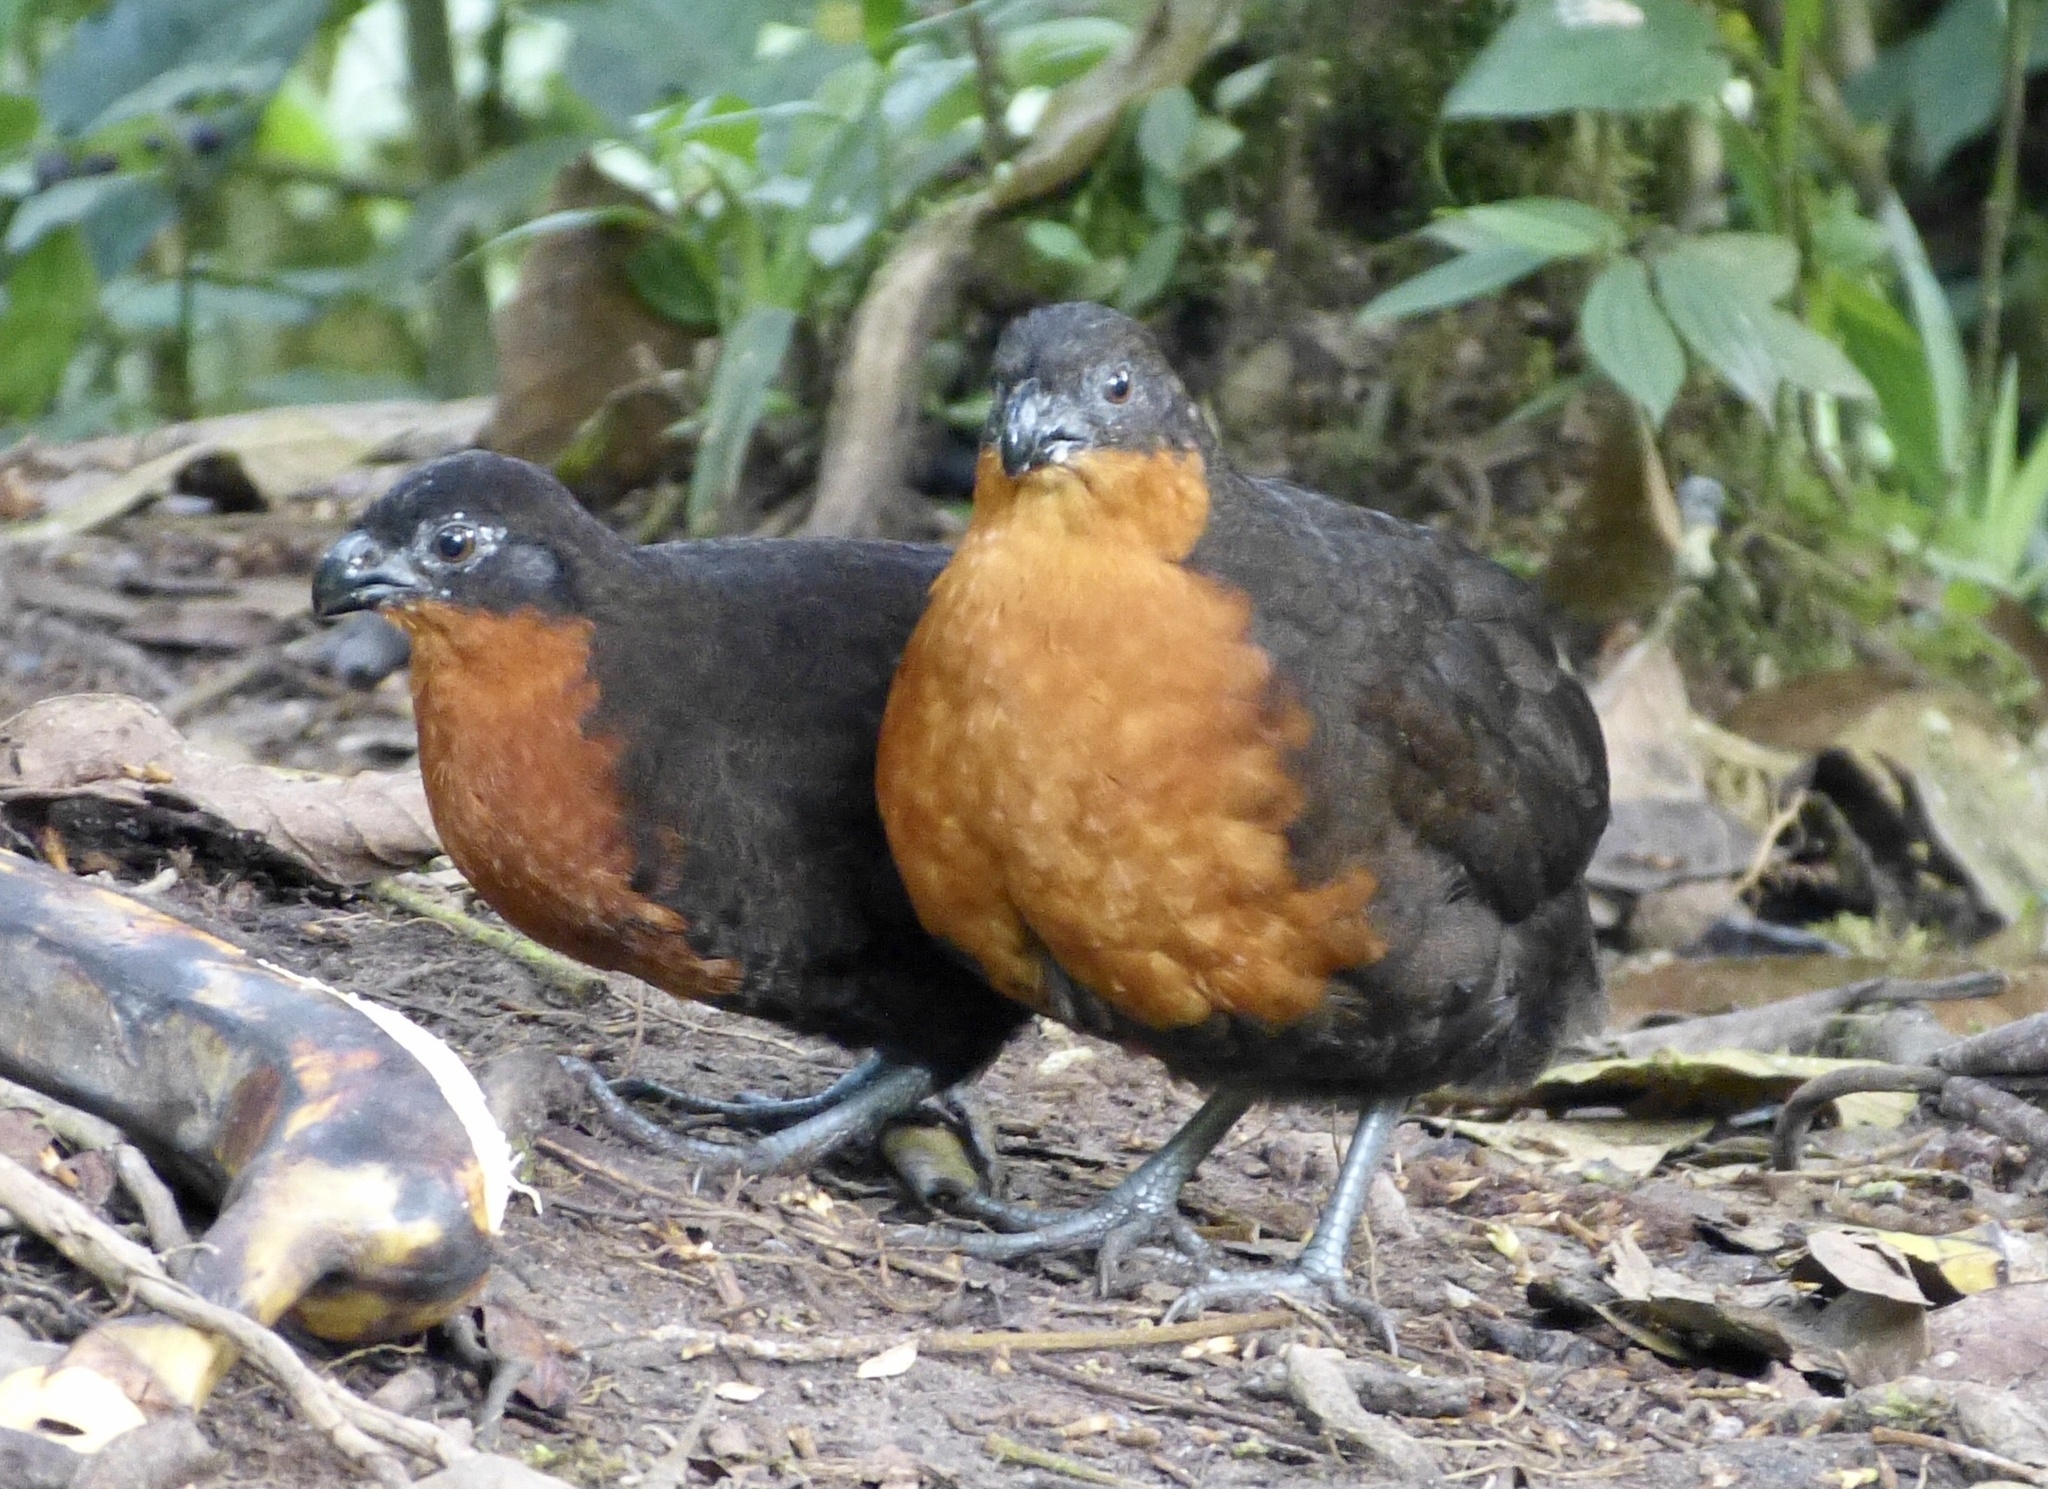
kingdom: Animalia
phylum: Chordata
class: Aves
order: Galliformes
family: Odontophoridae
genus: Odontophorus
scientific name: Odontophorus melanonotus
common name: Dark-backed wood-quail
